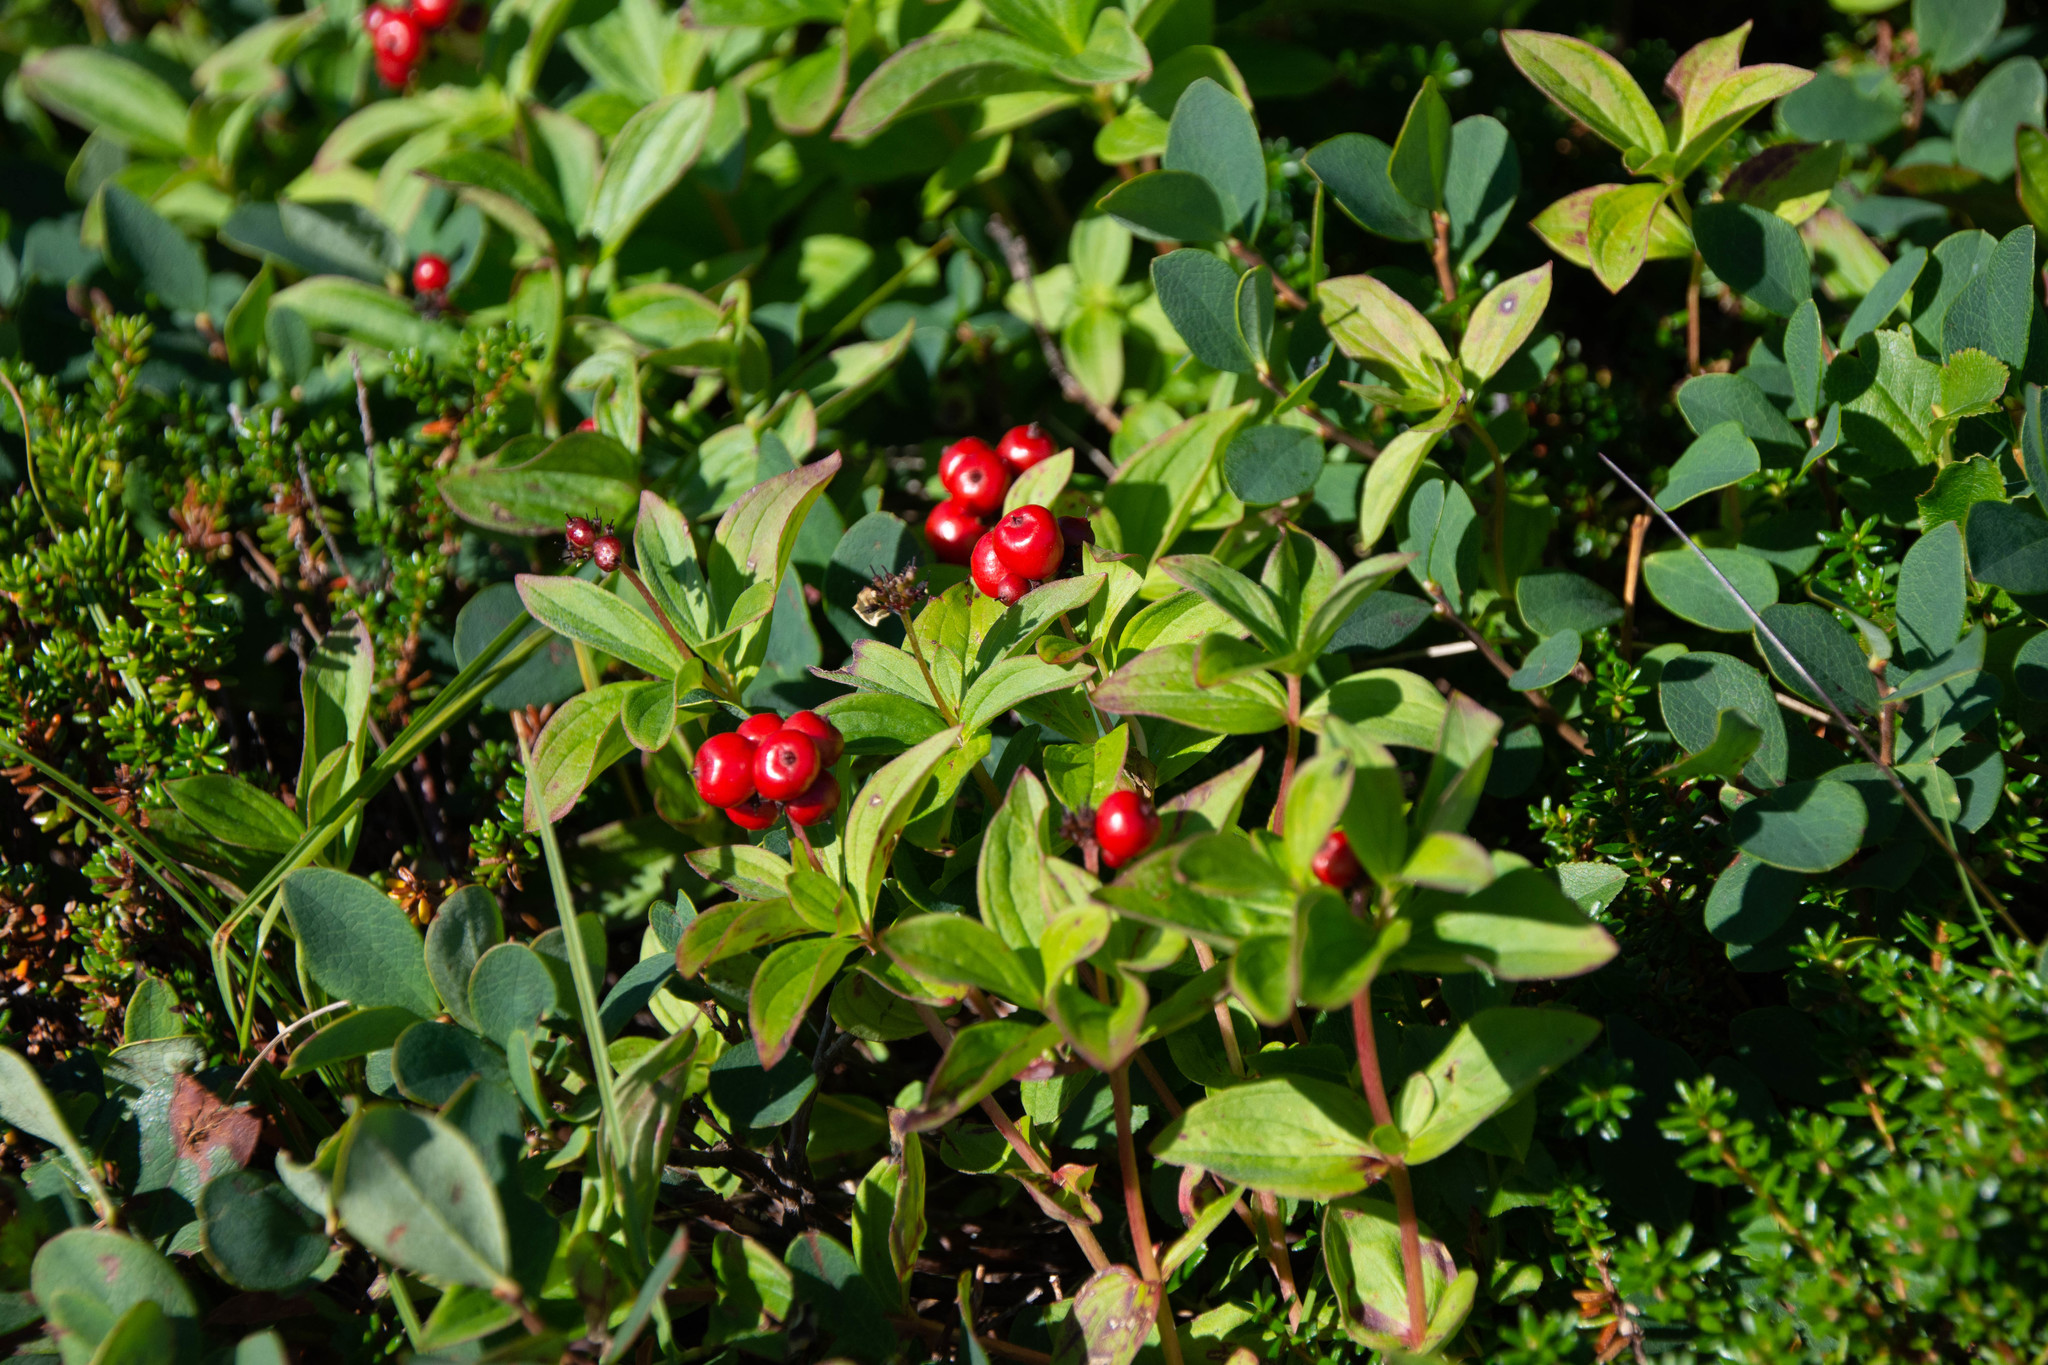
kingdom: Plantae
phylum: Tracheophyta
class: Magnoliopsida
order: Cornales
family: Cornaceae
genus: Cornus
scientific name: Cornus suecica
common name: Dwarf cornel
